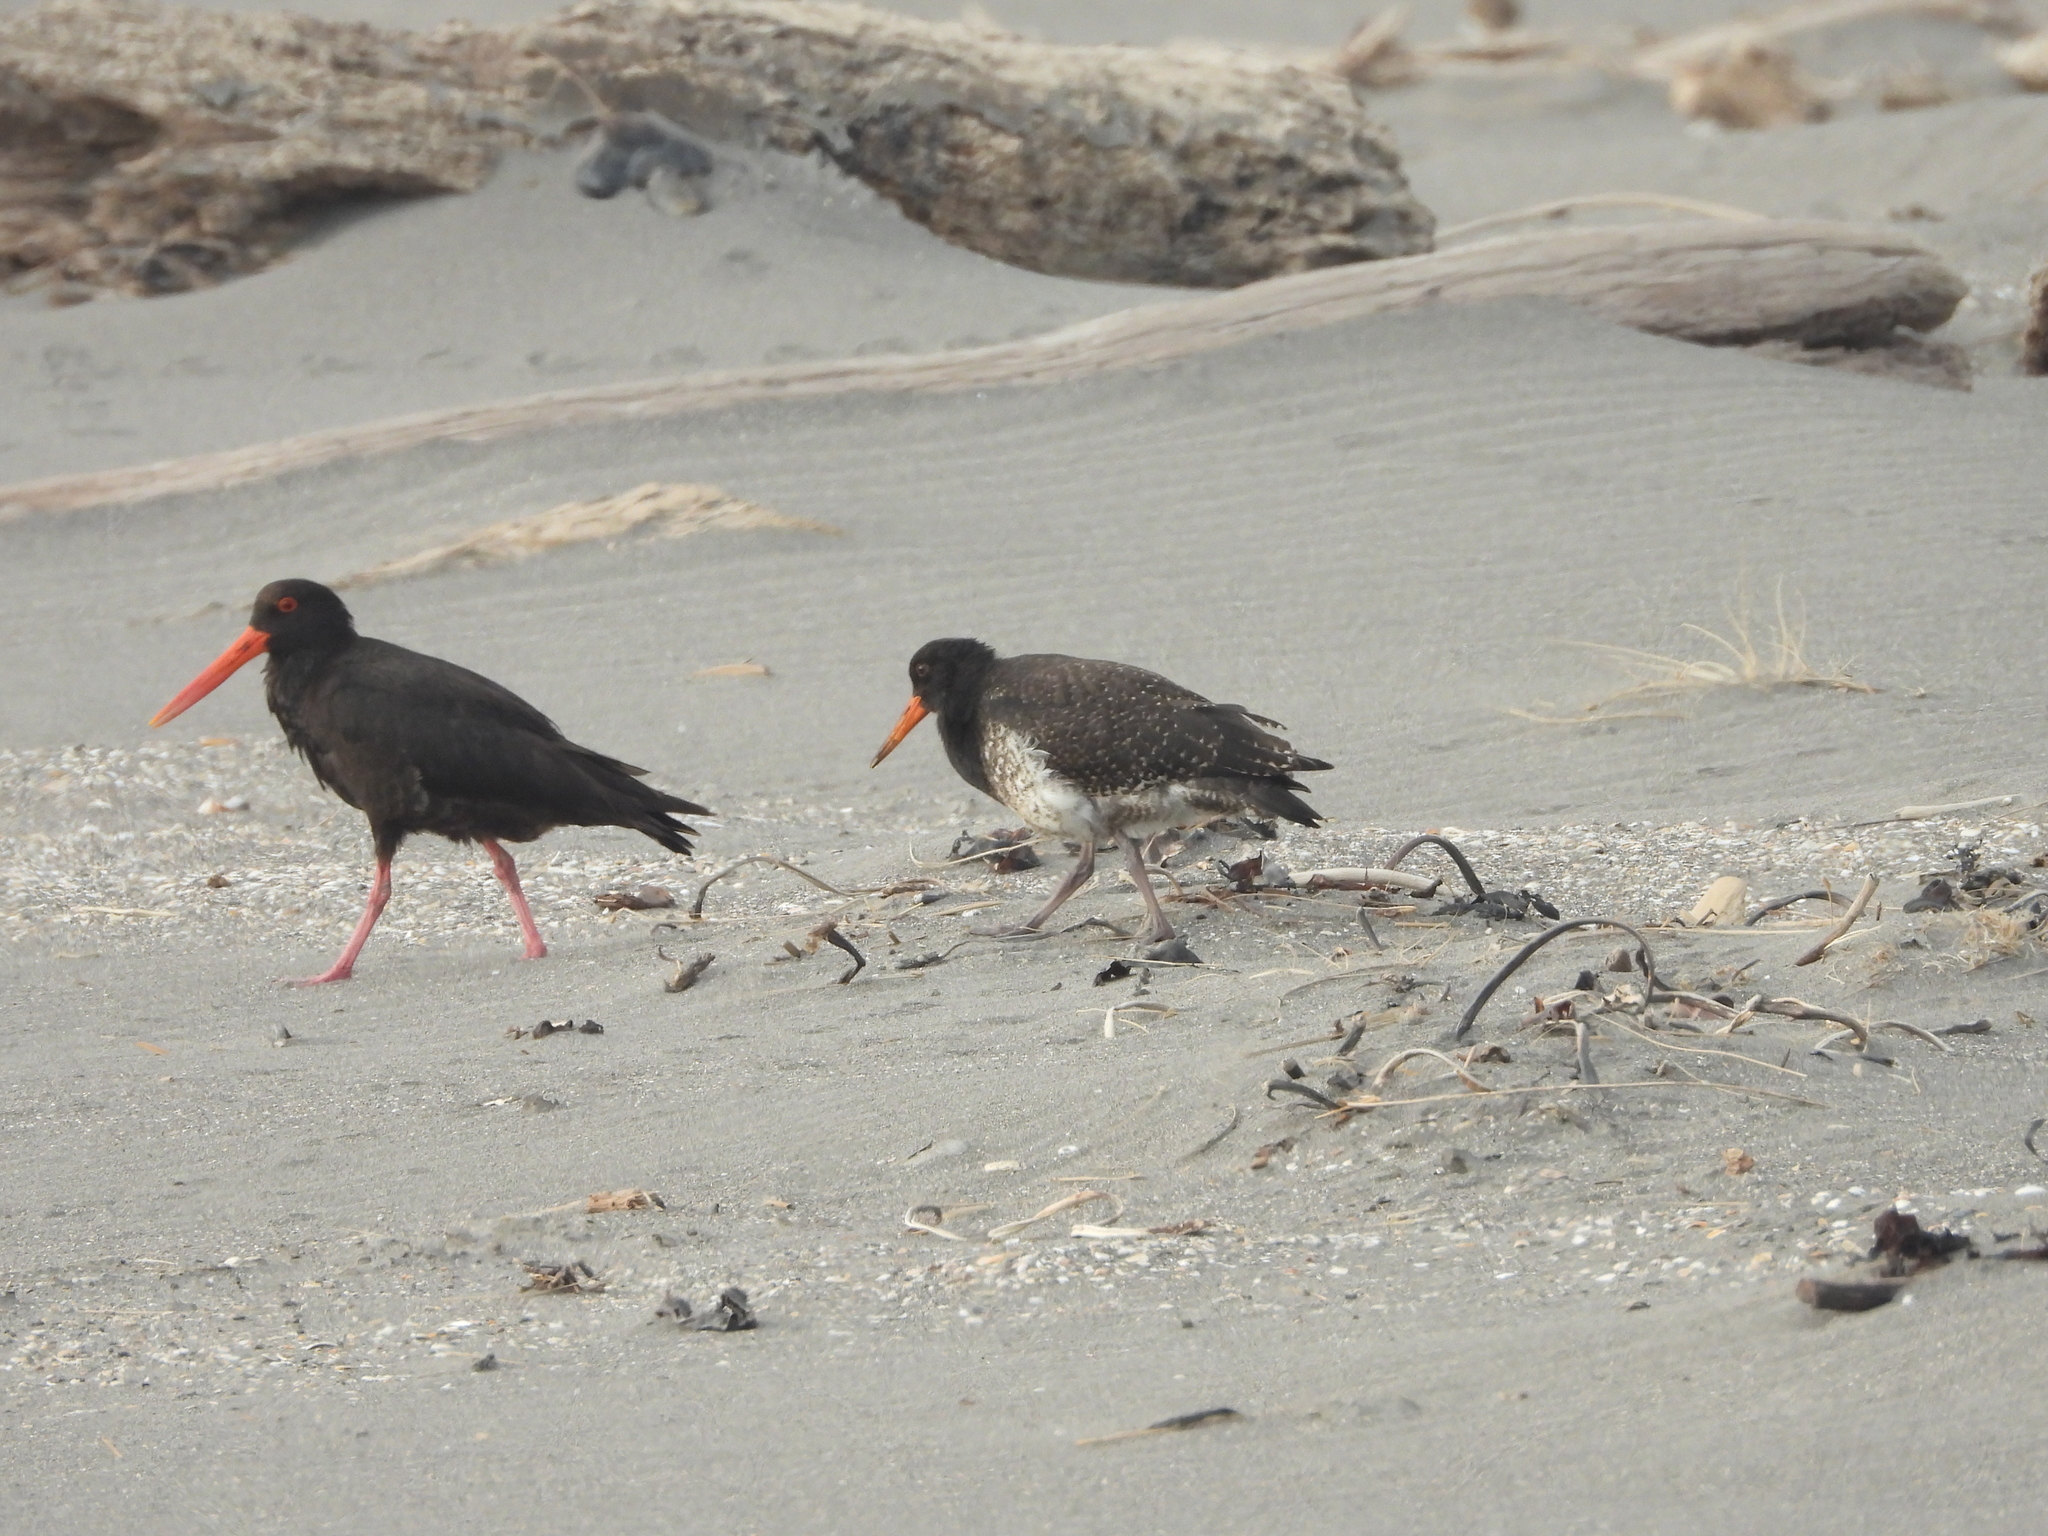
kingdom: Animalia
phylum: Chordata
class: Aves
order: Charadriiformes
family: Haematopodidae
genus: Haematopus
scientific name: Haematopus unicolor
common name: Variable oystercatcher
